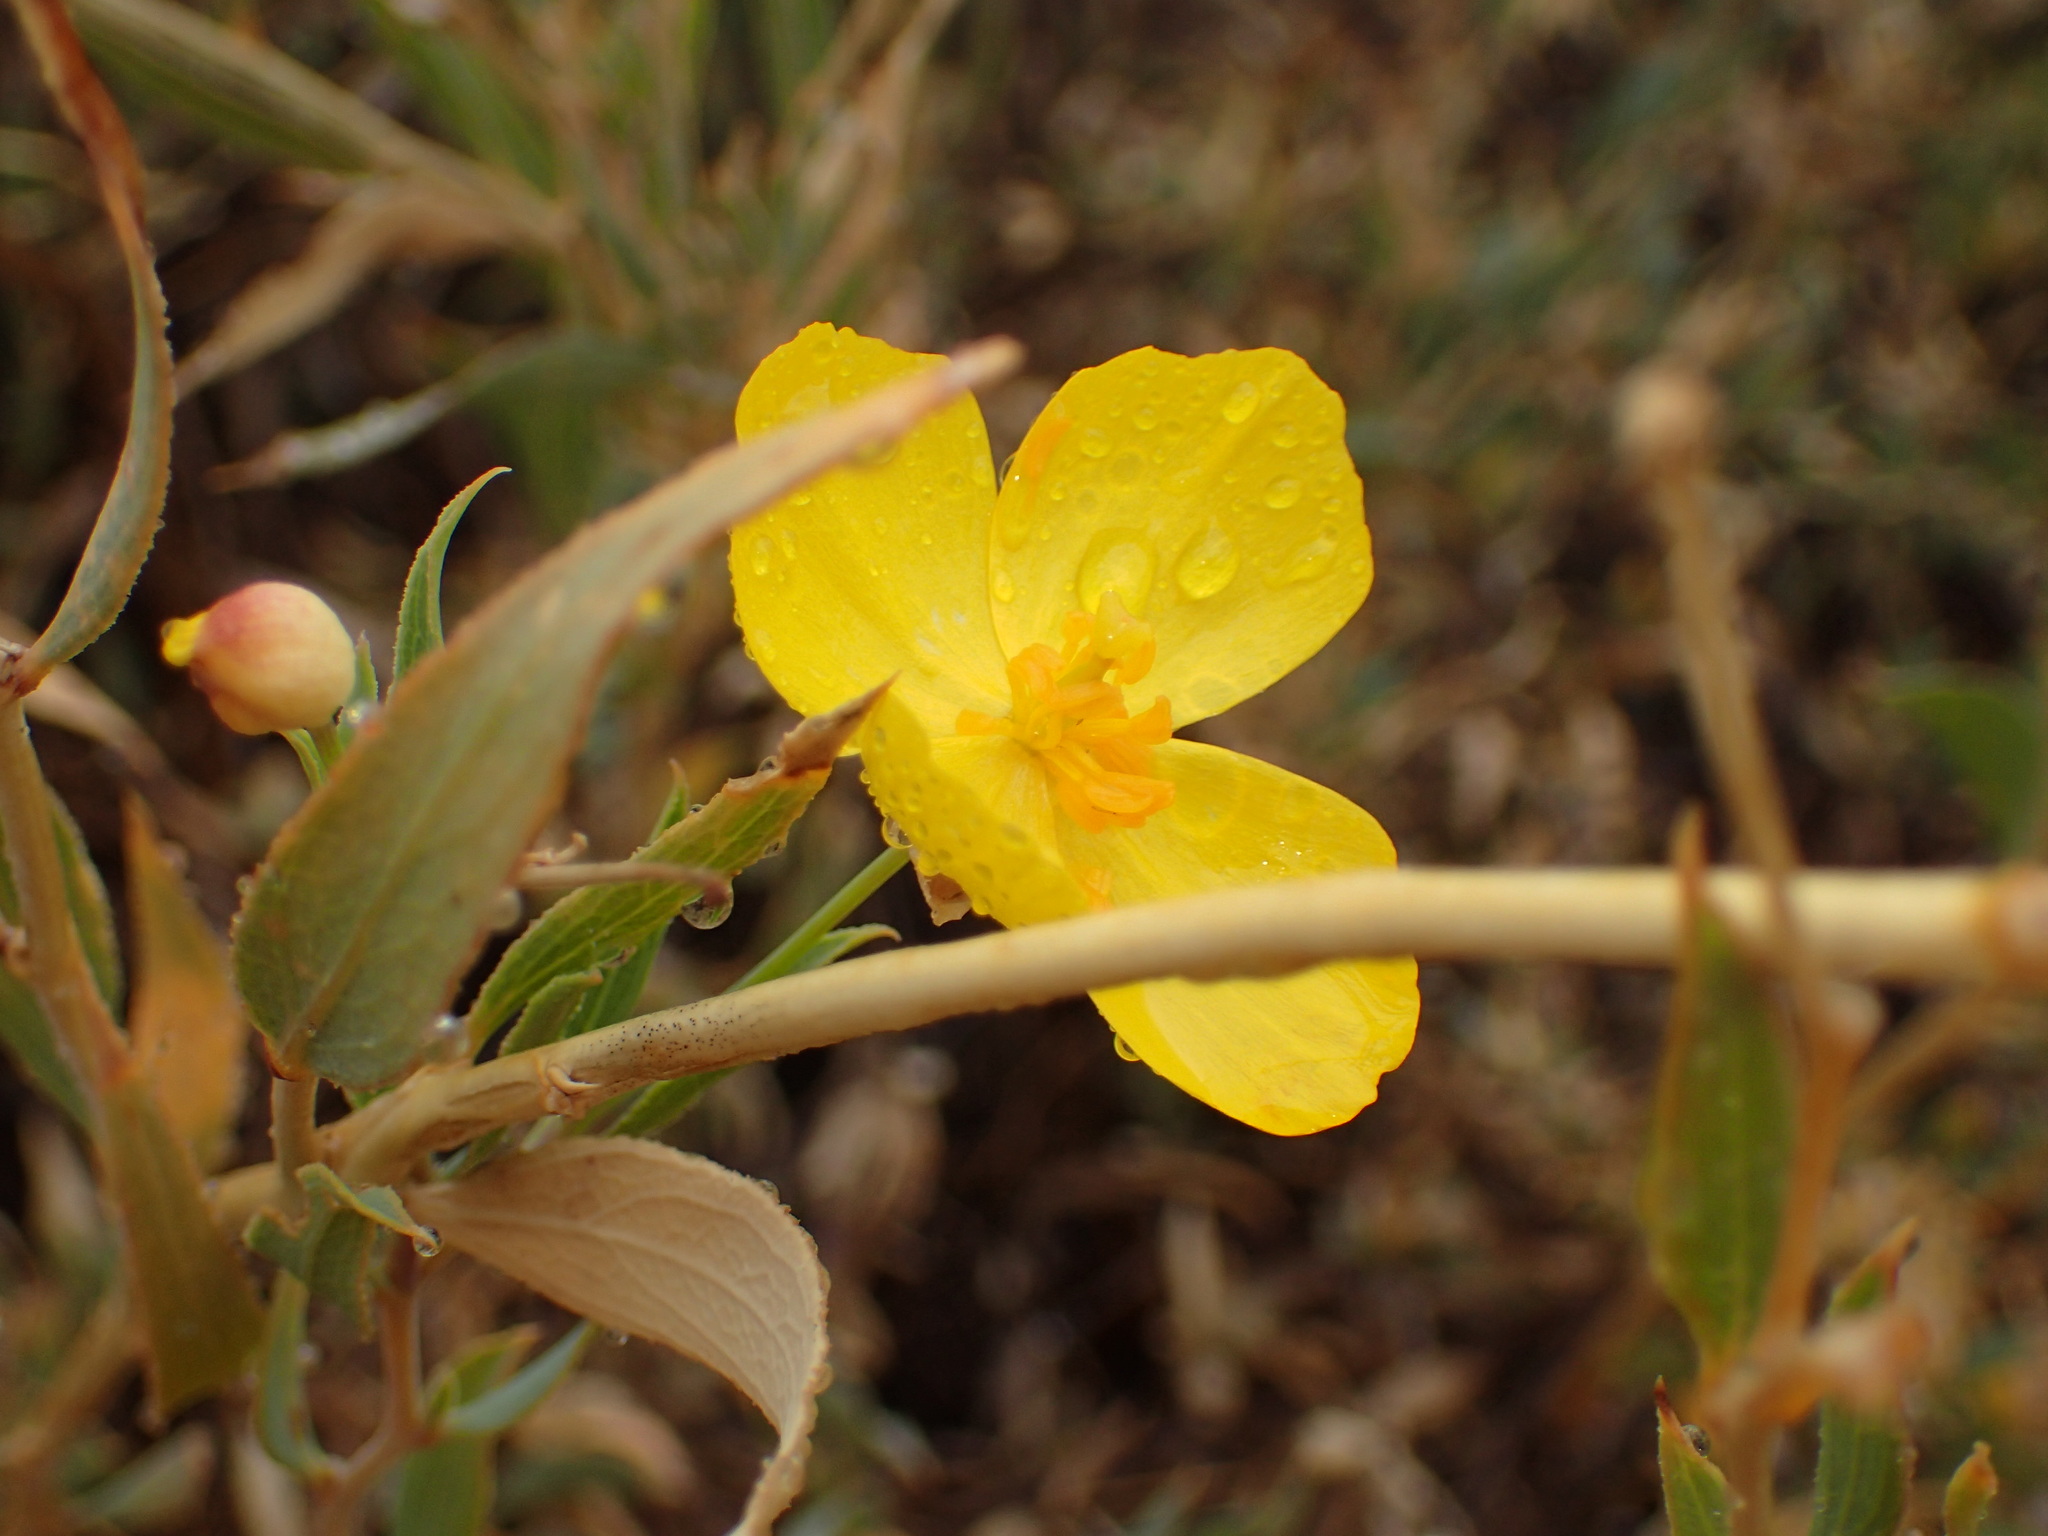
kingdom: Plantae
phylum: Tracheophyta
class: Magnoliopsida
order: Ranunculales
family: Papaveraceae
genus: Dendromecon
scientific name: Dendromecon rigida
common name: Tree poppy
